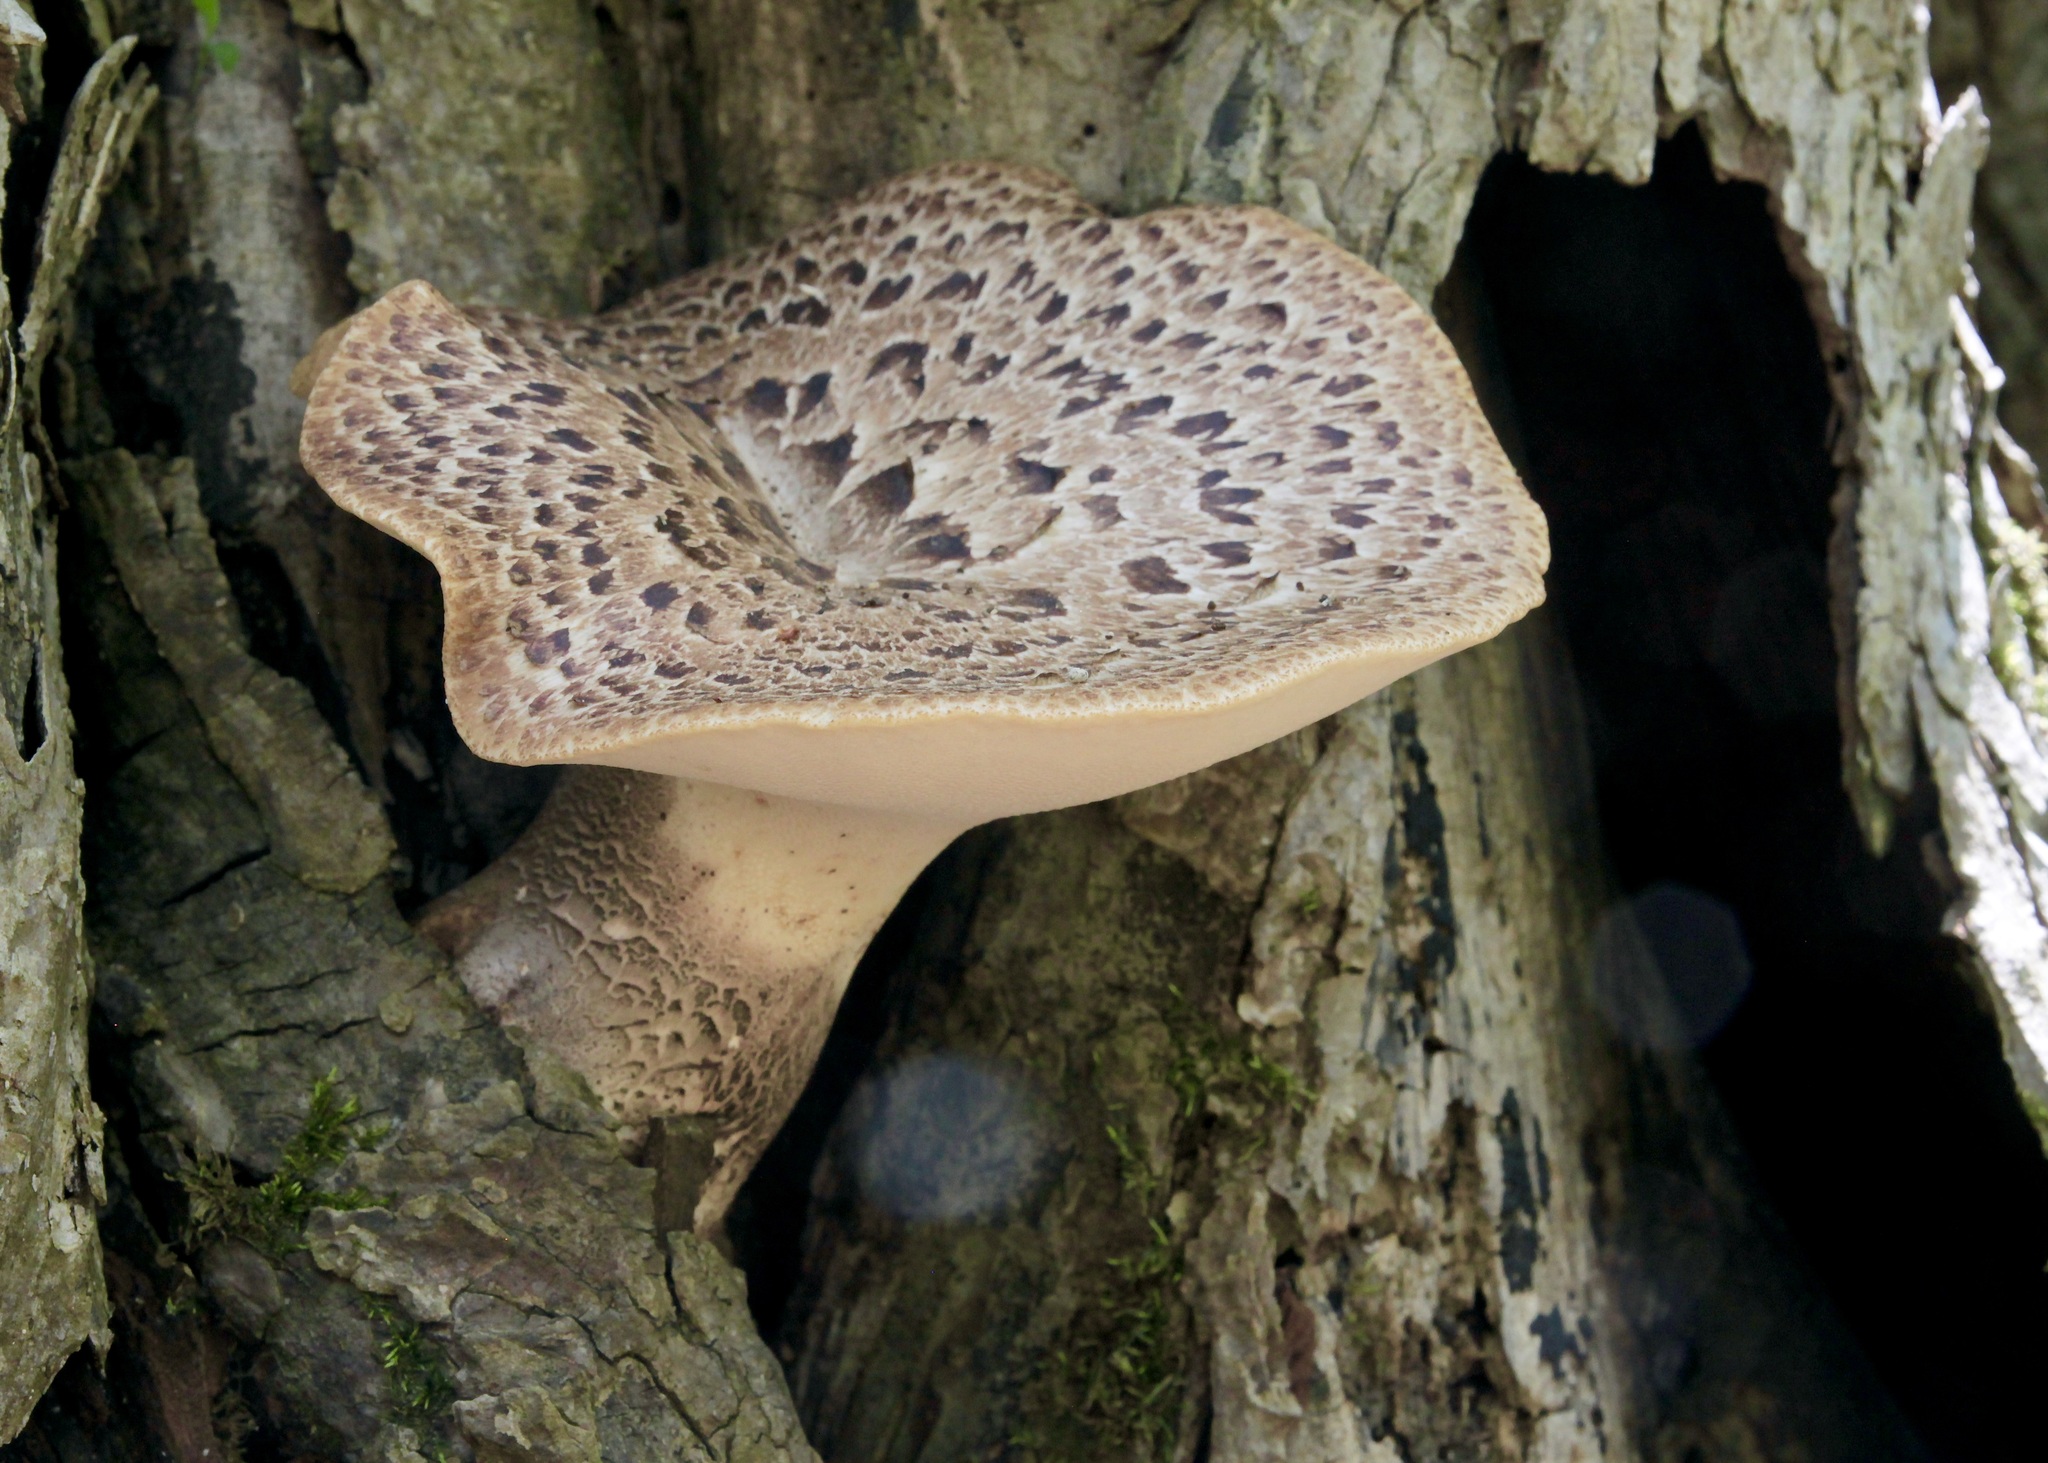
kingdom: Fungi
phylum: Basidiomycota
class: Agaricomycetes
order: Polyporales
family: Polyporaceae
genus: Cerioporus
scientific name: Cerioporus squamosus
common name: Dryad's saddle
